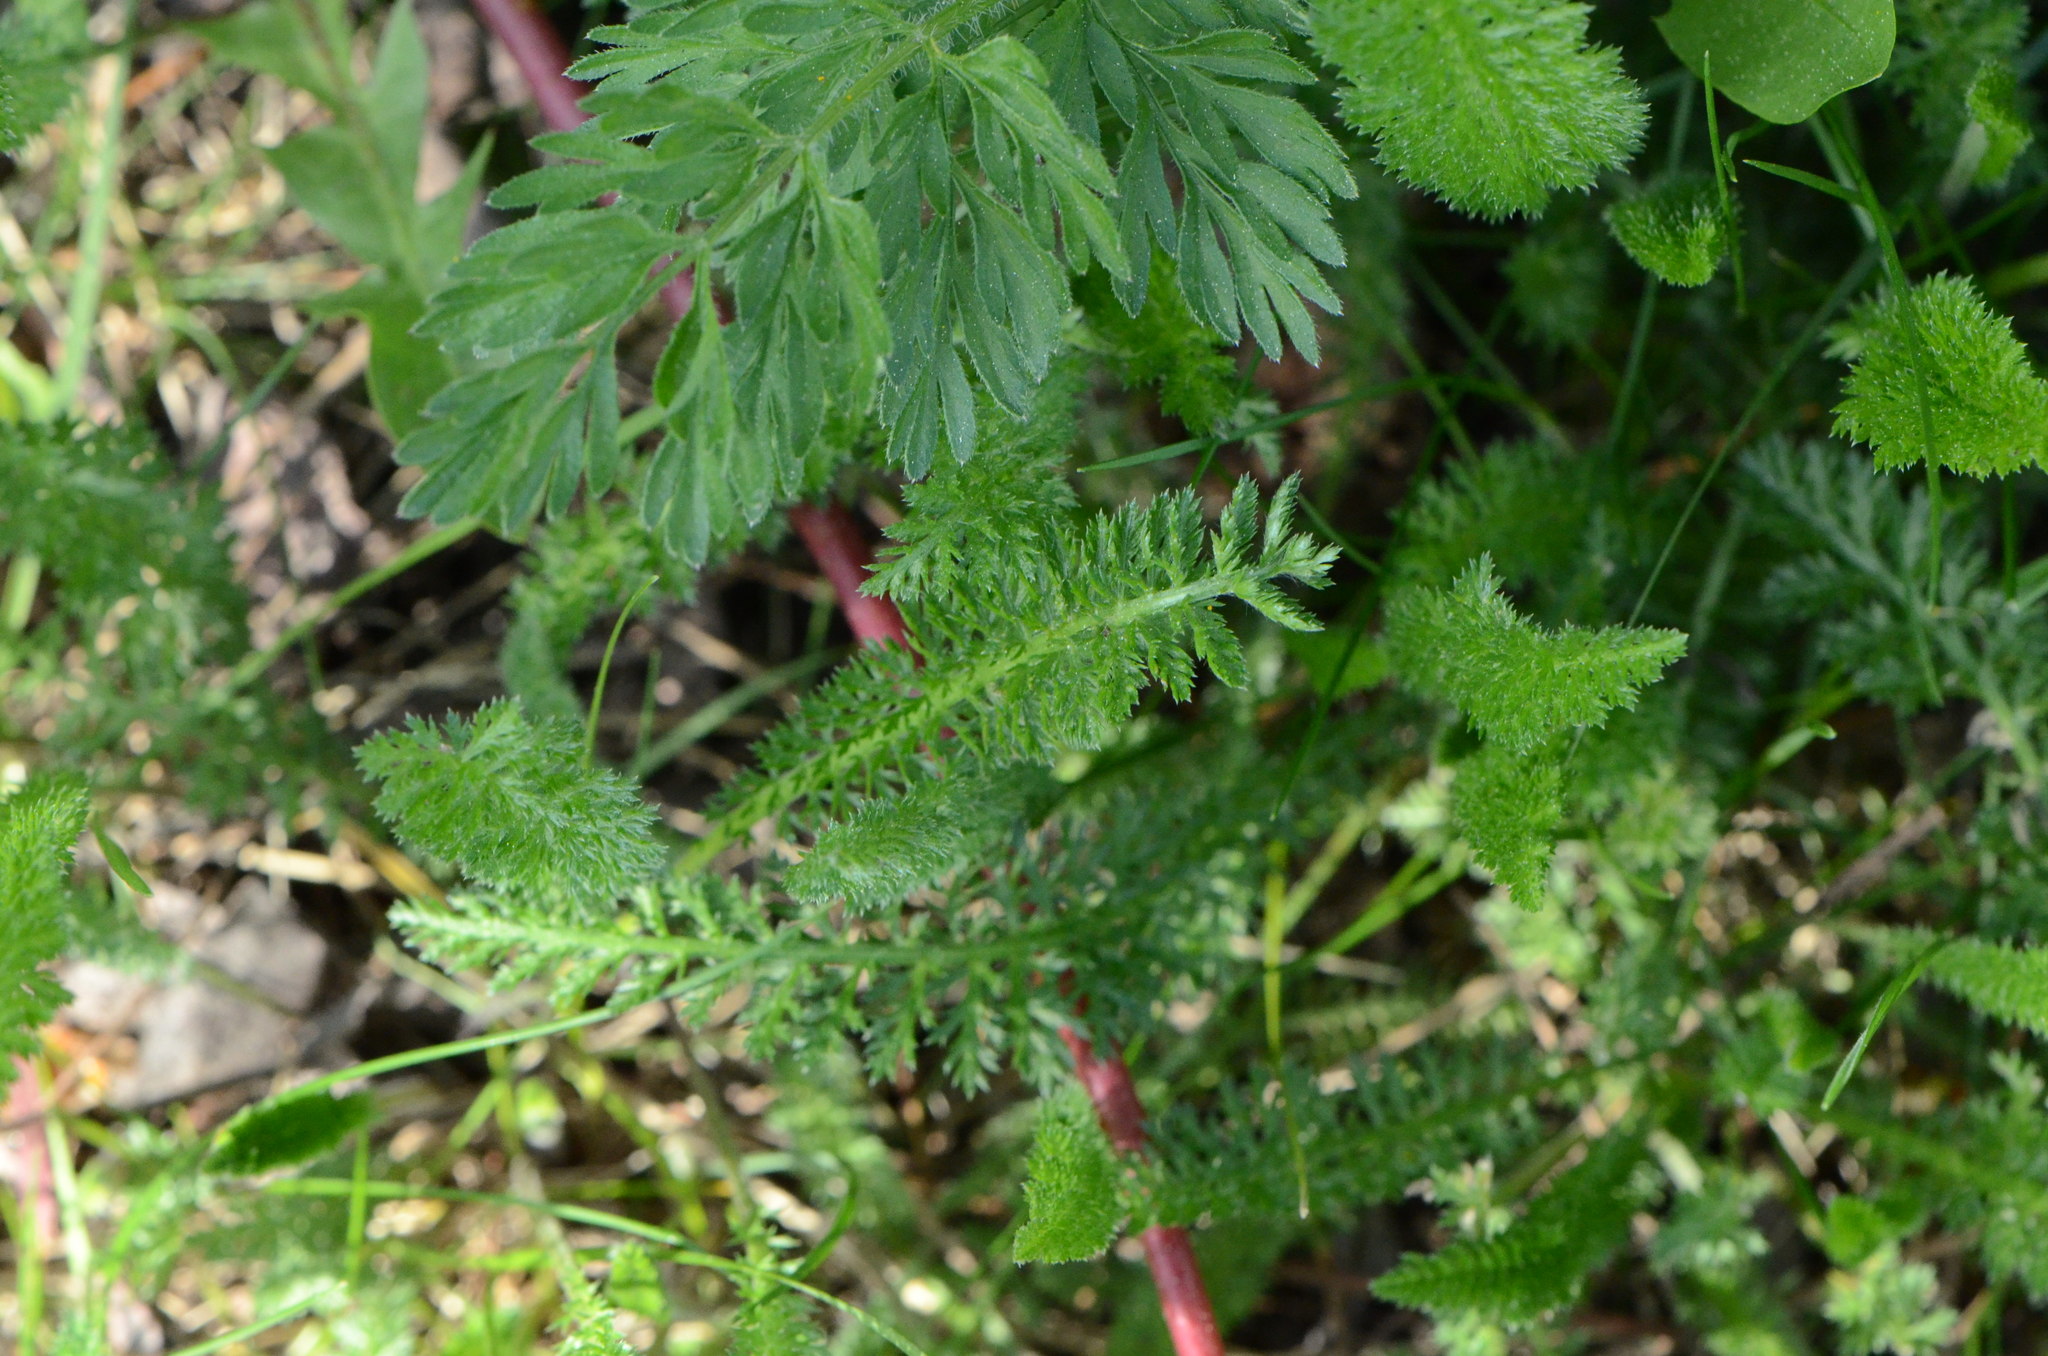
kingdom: Plantae
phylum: Tracheophyta
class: Magnoliopsida
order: Asterales
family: Asteraceae
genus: Achillea
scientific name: Achillea millefolium
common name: Yarrow
